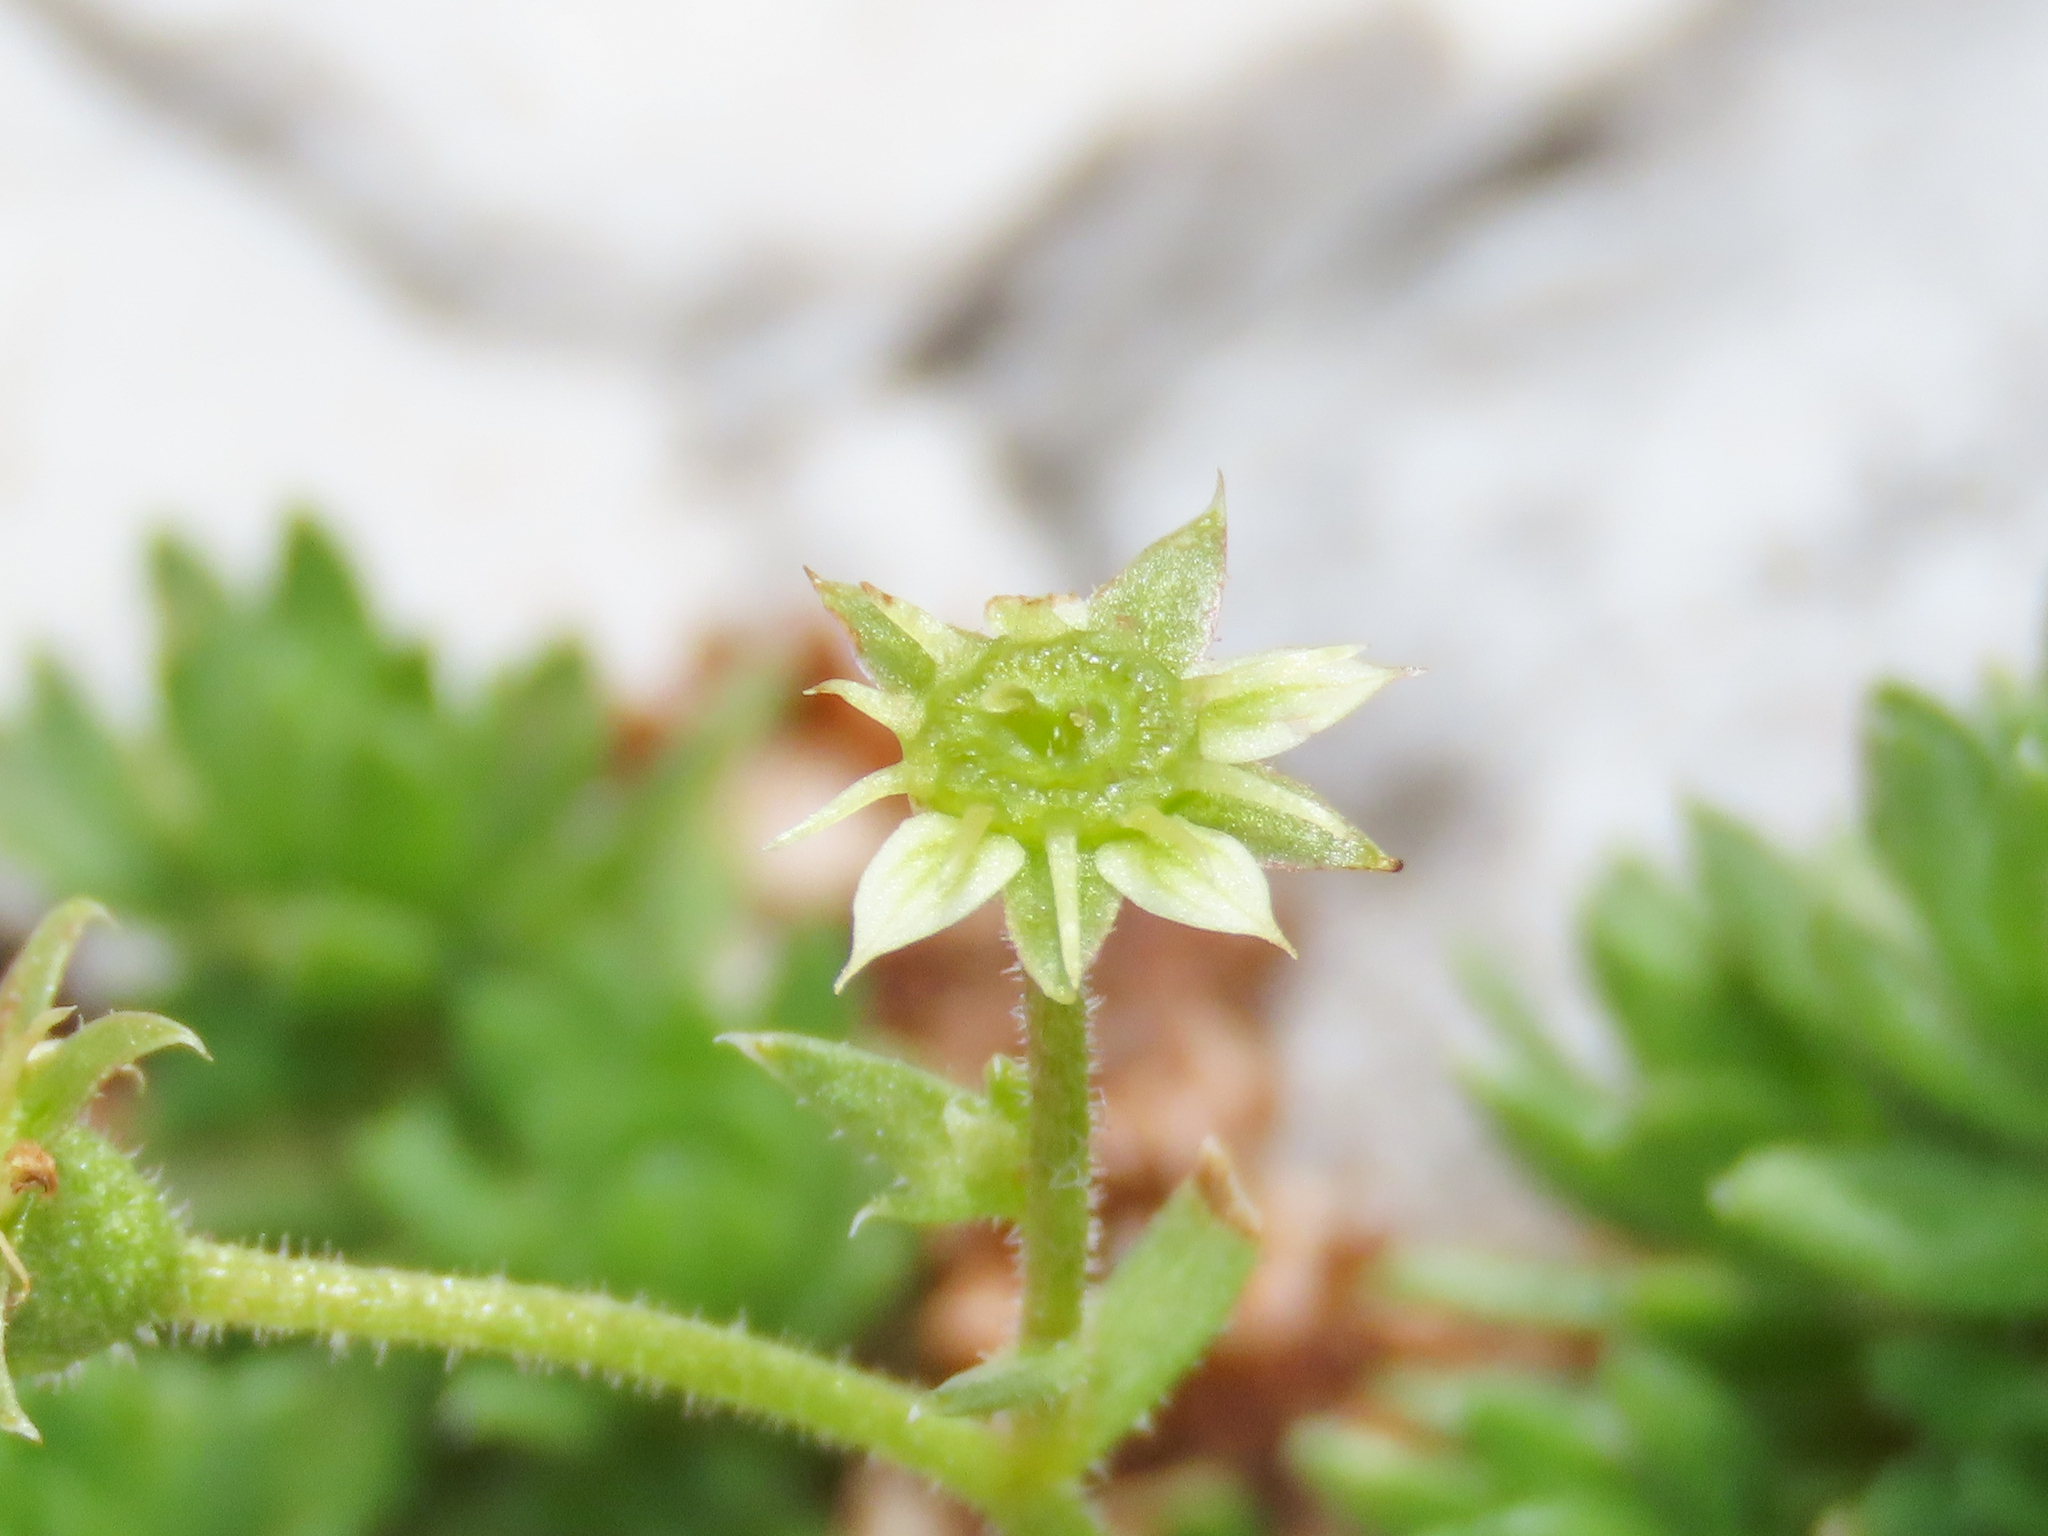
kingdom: Plantae
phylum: Tracheophyta
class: Magnoliopsida
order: Saxifragales
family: Saxifragaceae
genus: Saxifraga
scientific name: Saxifraga sedoides
